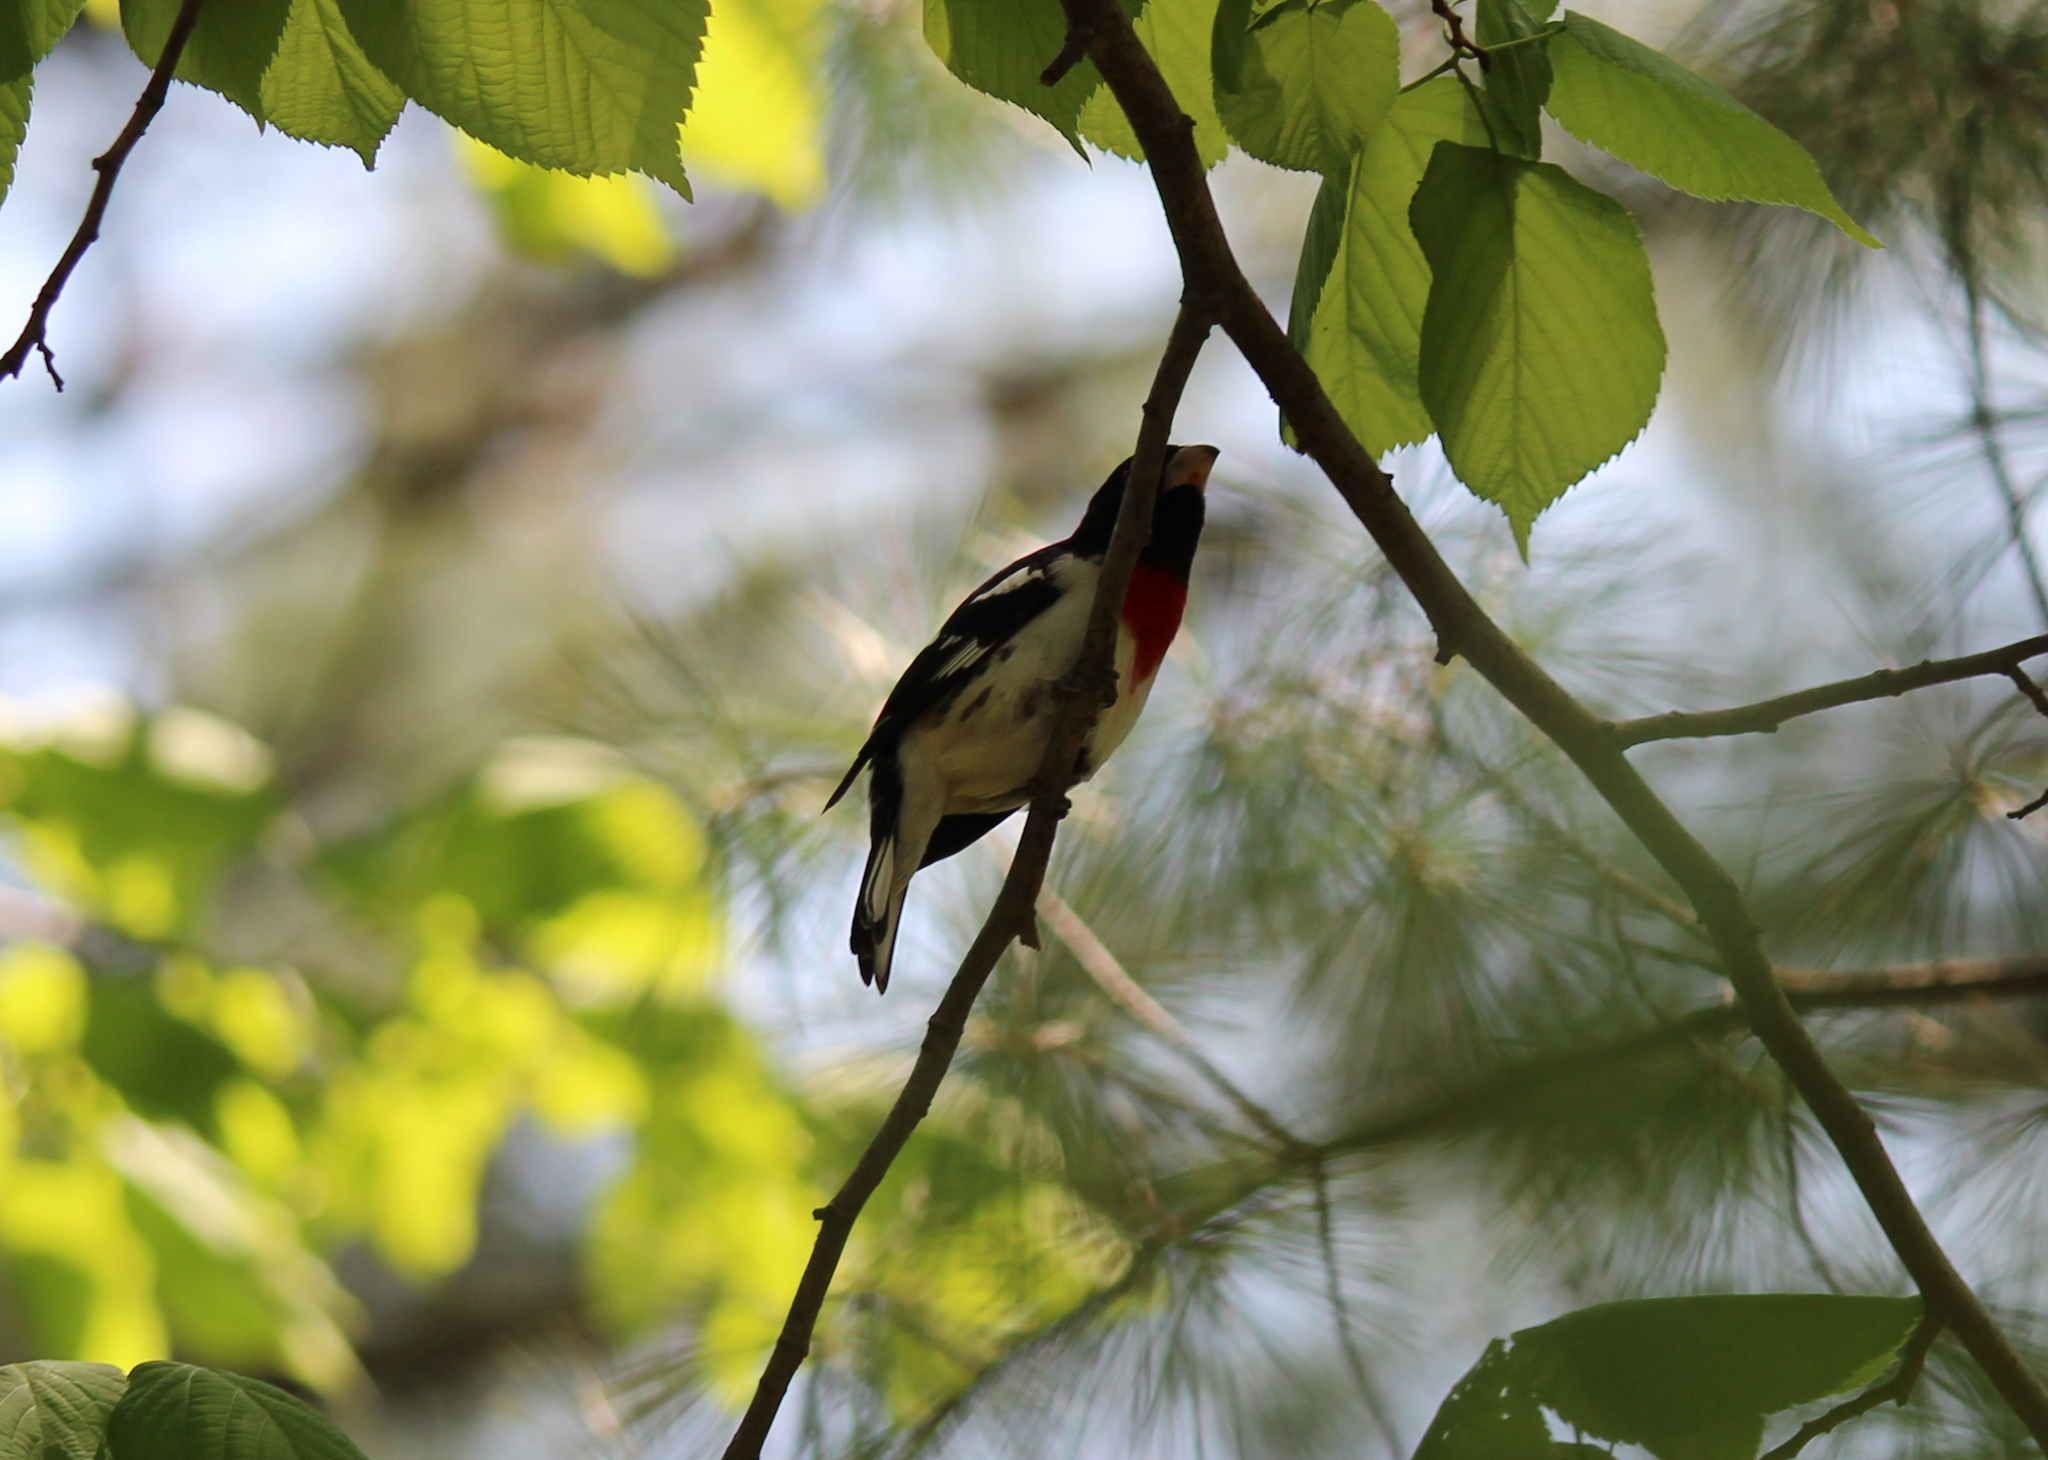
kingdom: Animalia
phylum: Chordata
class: Aves
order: Passeriformes
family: Cardinalidae
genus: Pheucticus
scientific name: Pheucticus ludovicianus
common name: Rose-breasted grosbeak
